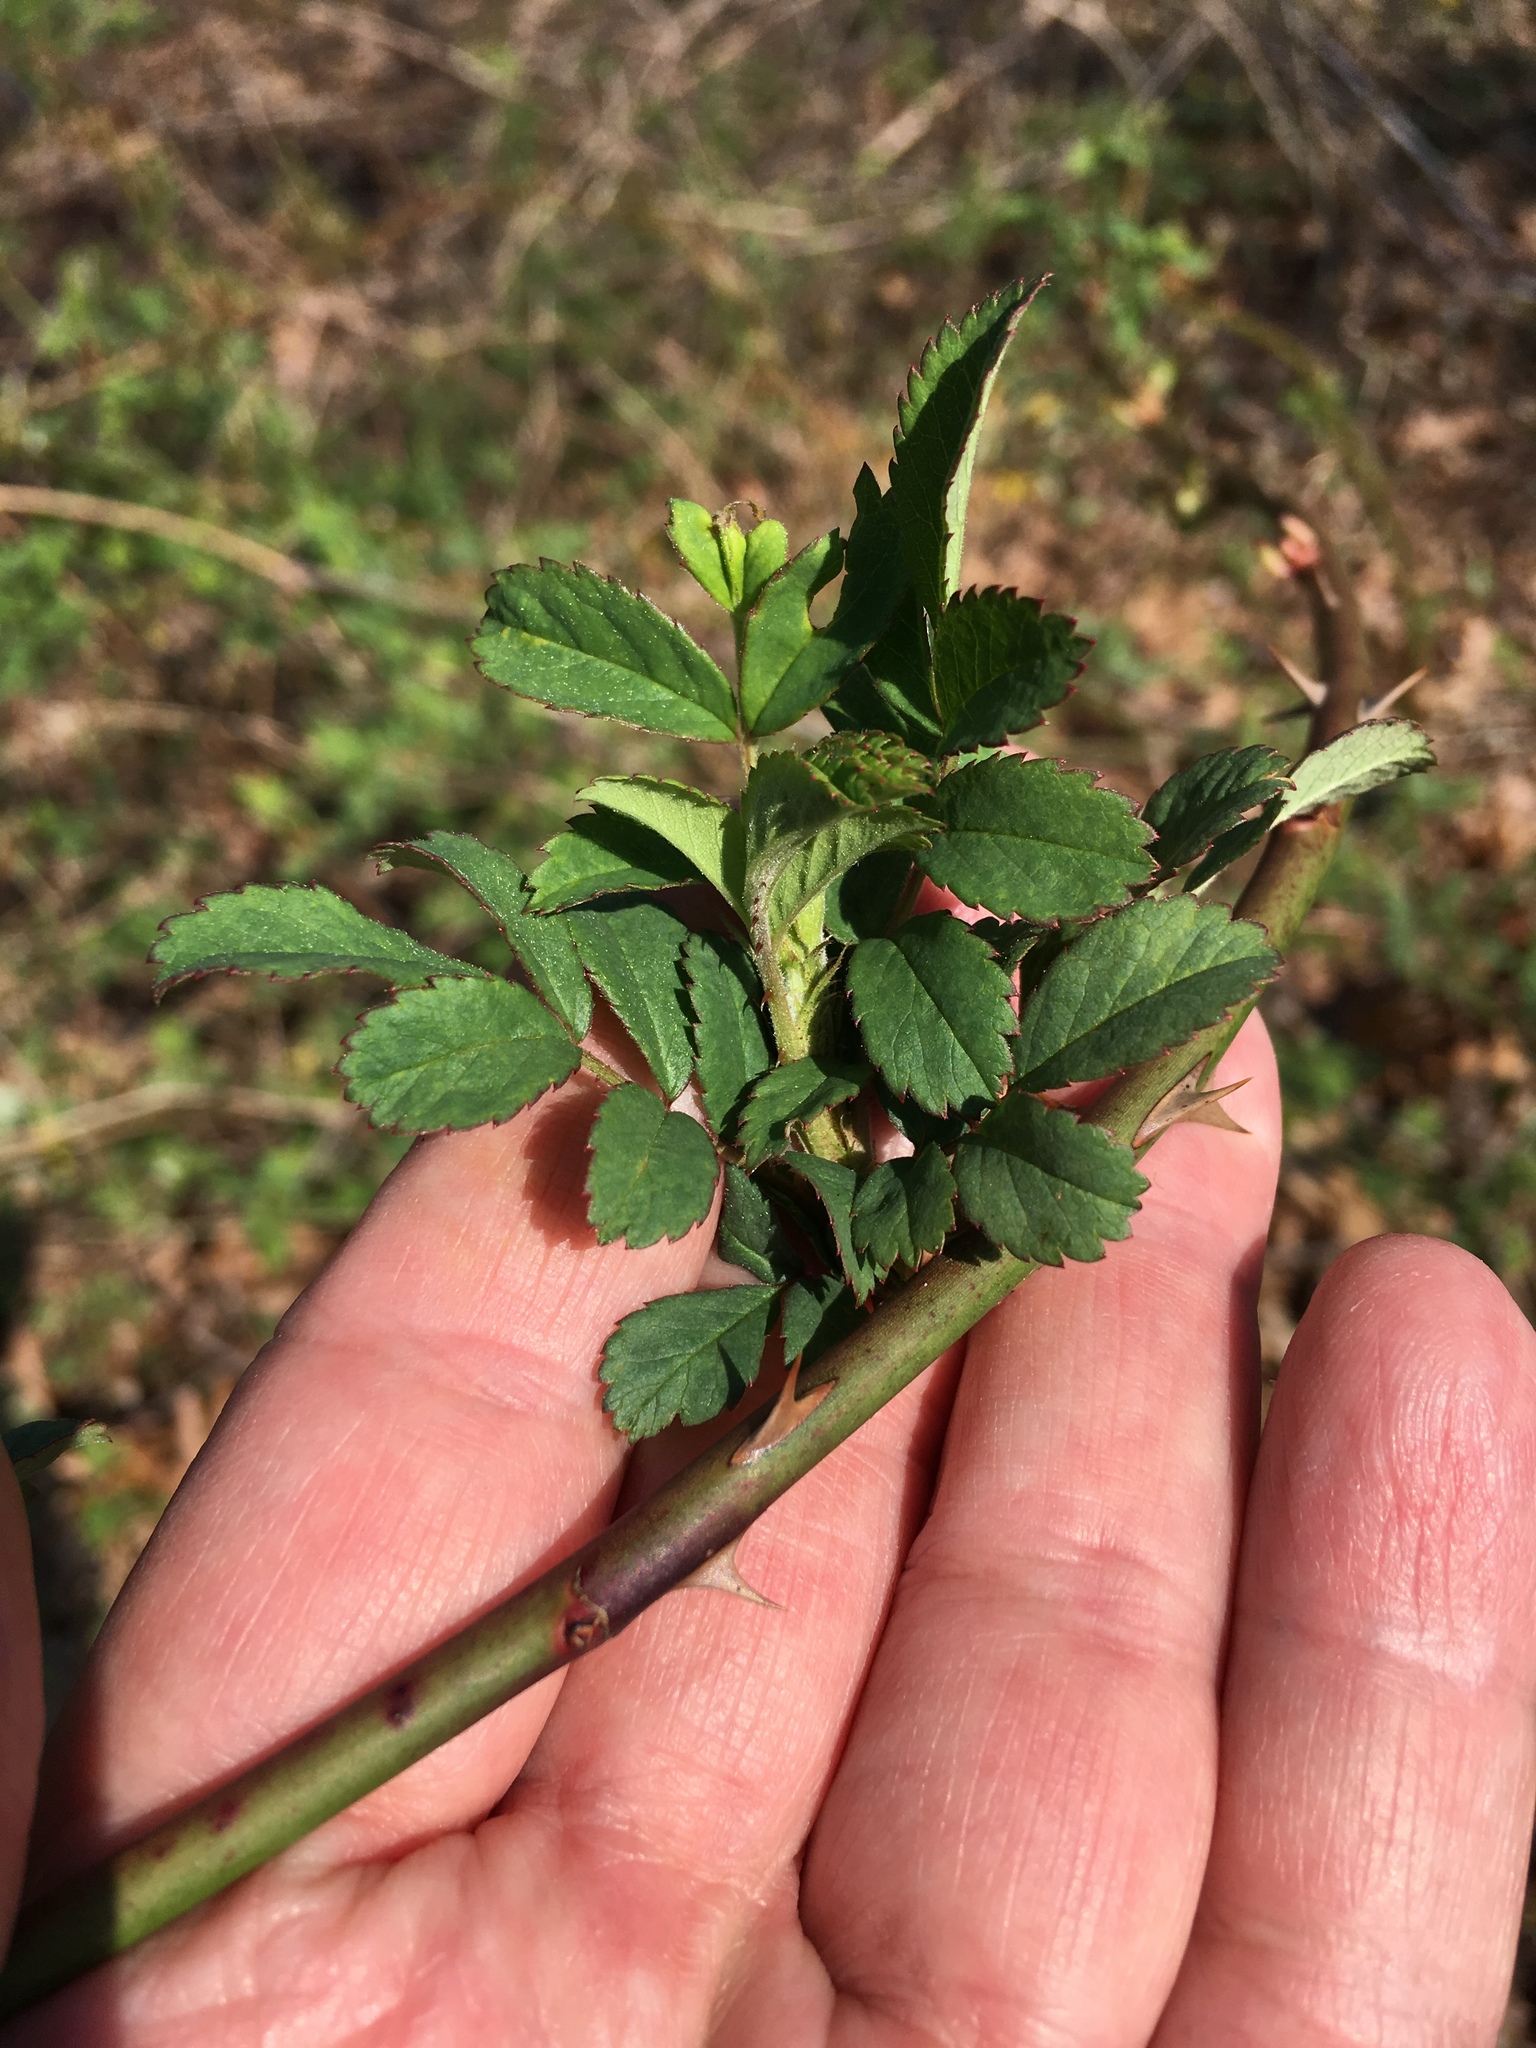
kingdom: Plantae
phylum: Tracheophyta
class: Magnoliopsida
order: Rosales
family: Rosaceae
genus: Rosa
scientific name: Rosa multiflora
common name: Multiflora rose
